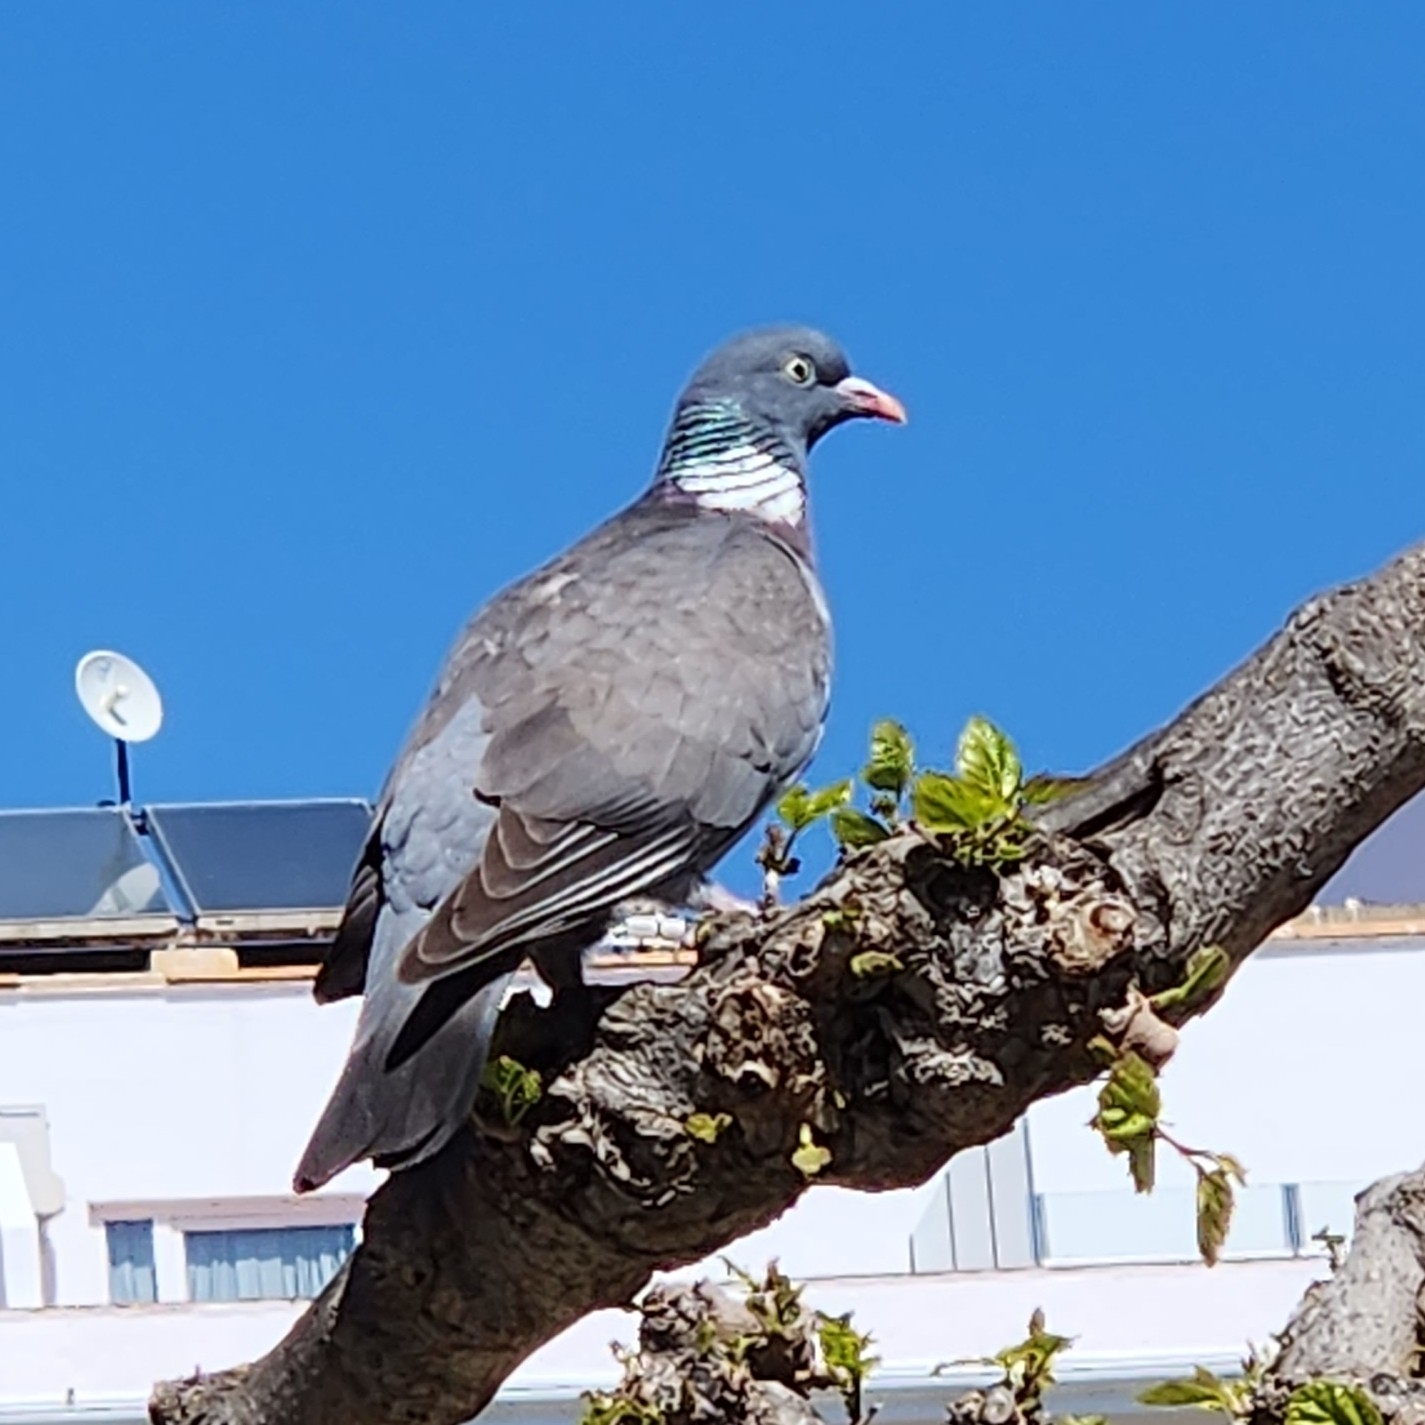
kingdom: Animalia
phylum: Chordata
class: Aves
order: Columbiformes
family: Columbidae
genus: Columba
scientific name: Columba palumbus
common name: Common wood pigeon
